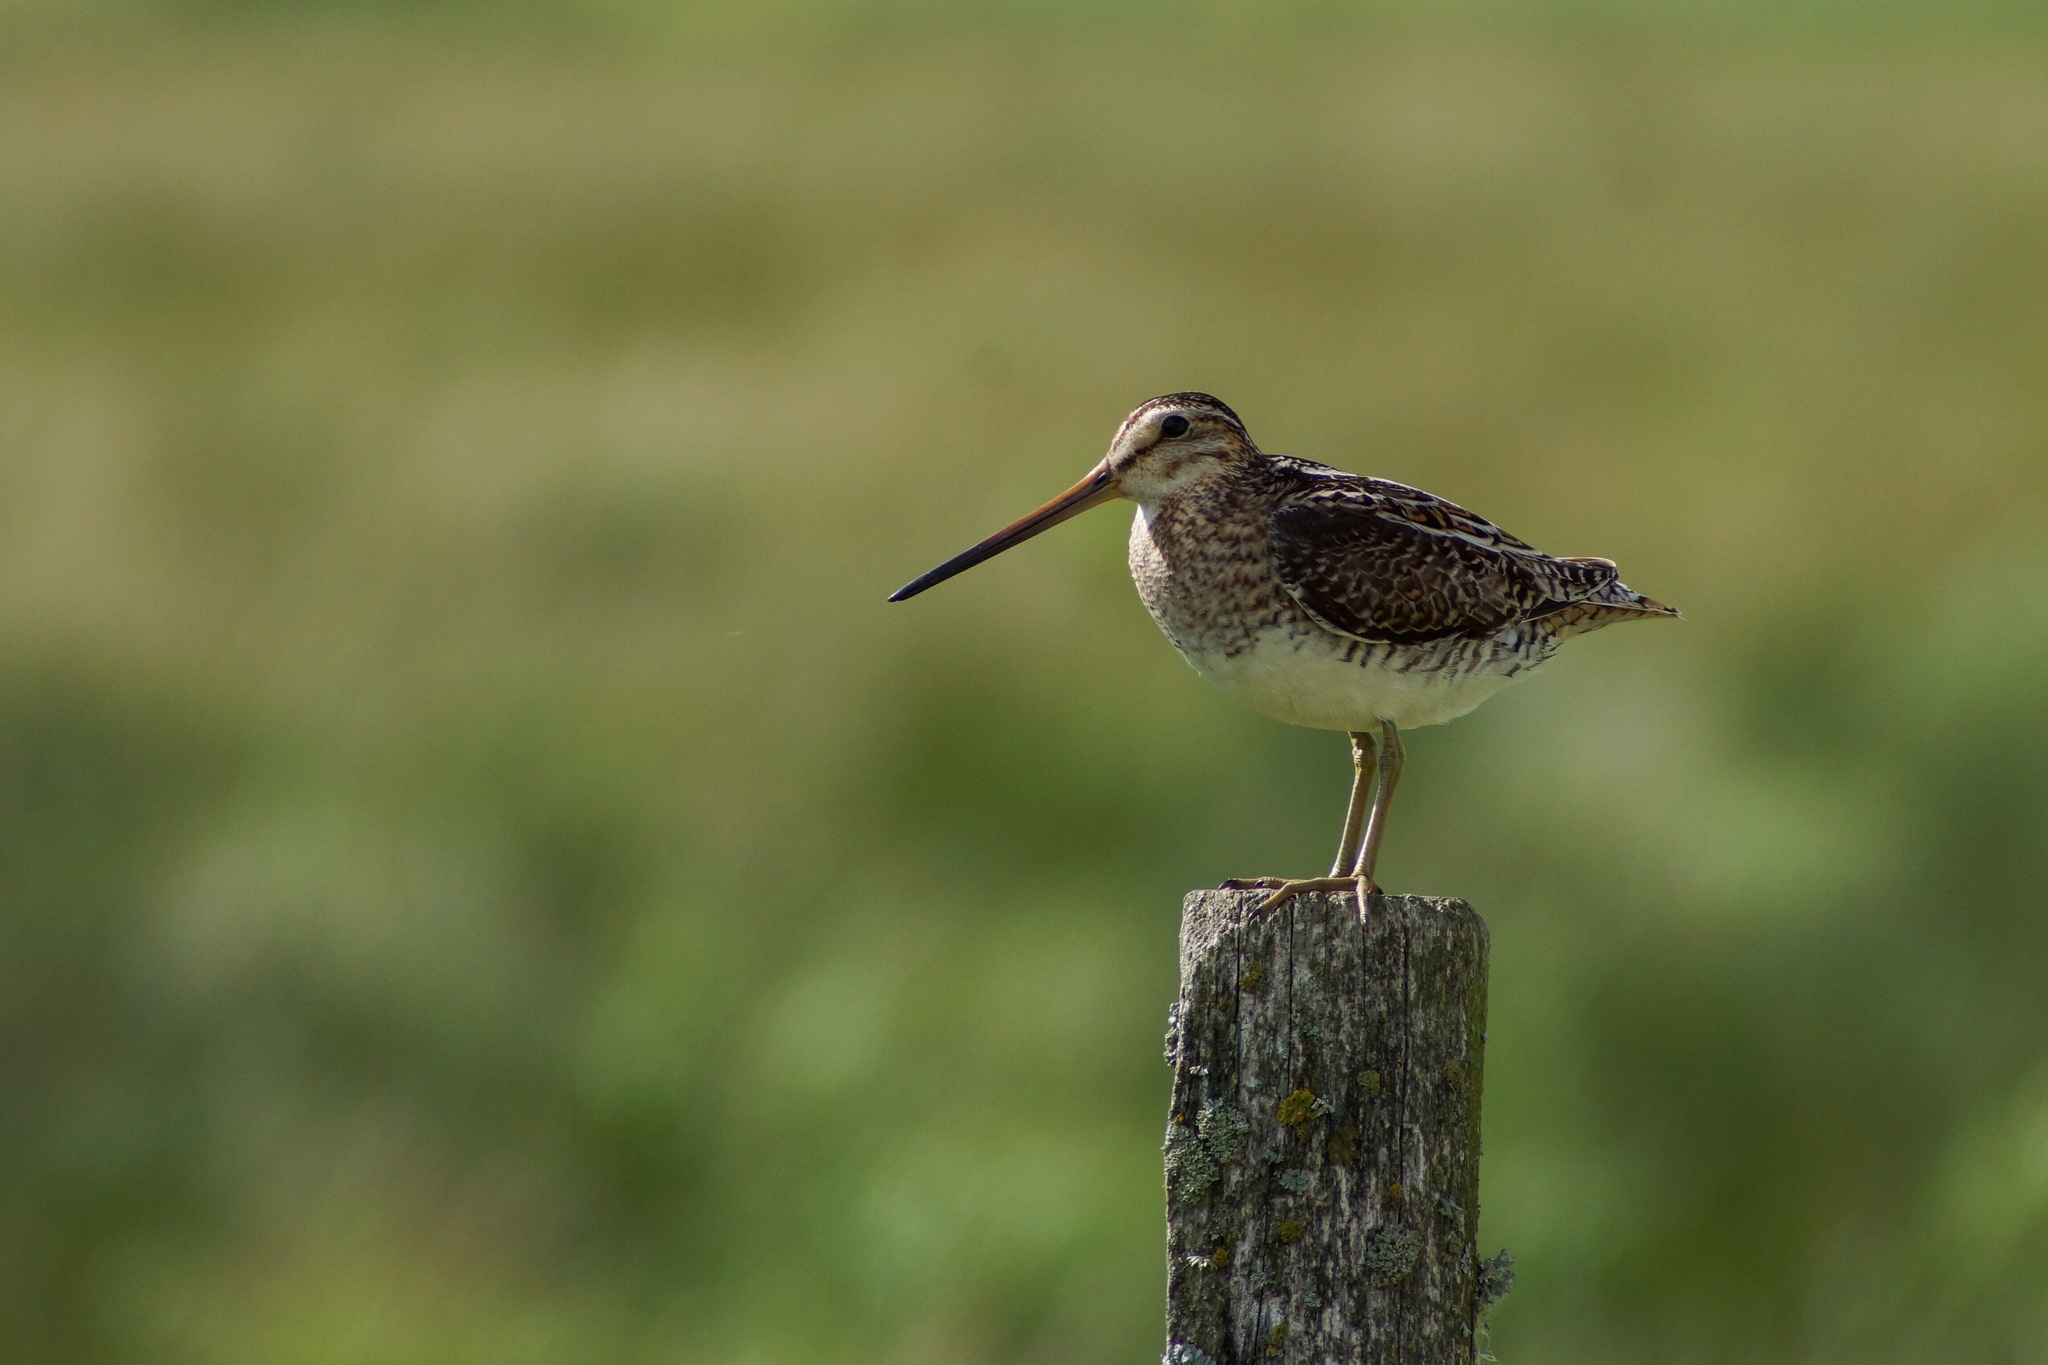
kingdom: Animalia
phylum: Chordata
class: Aves
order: Charadriiformes
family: Scolopacidae
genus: Gallinago
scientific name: Gallinago gallinago
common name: Common snipe
